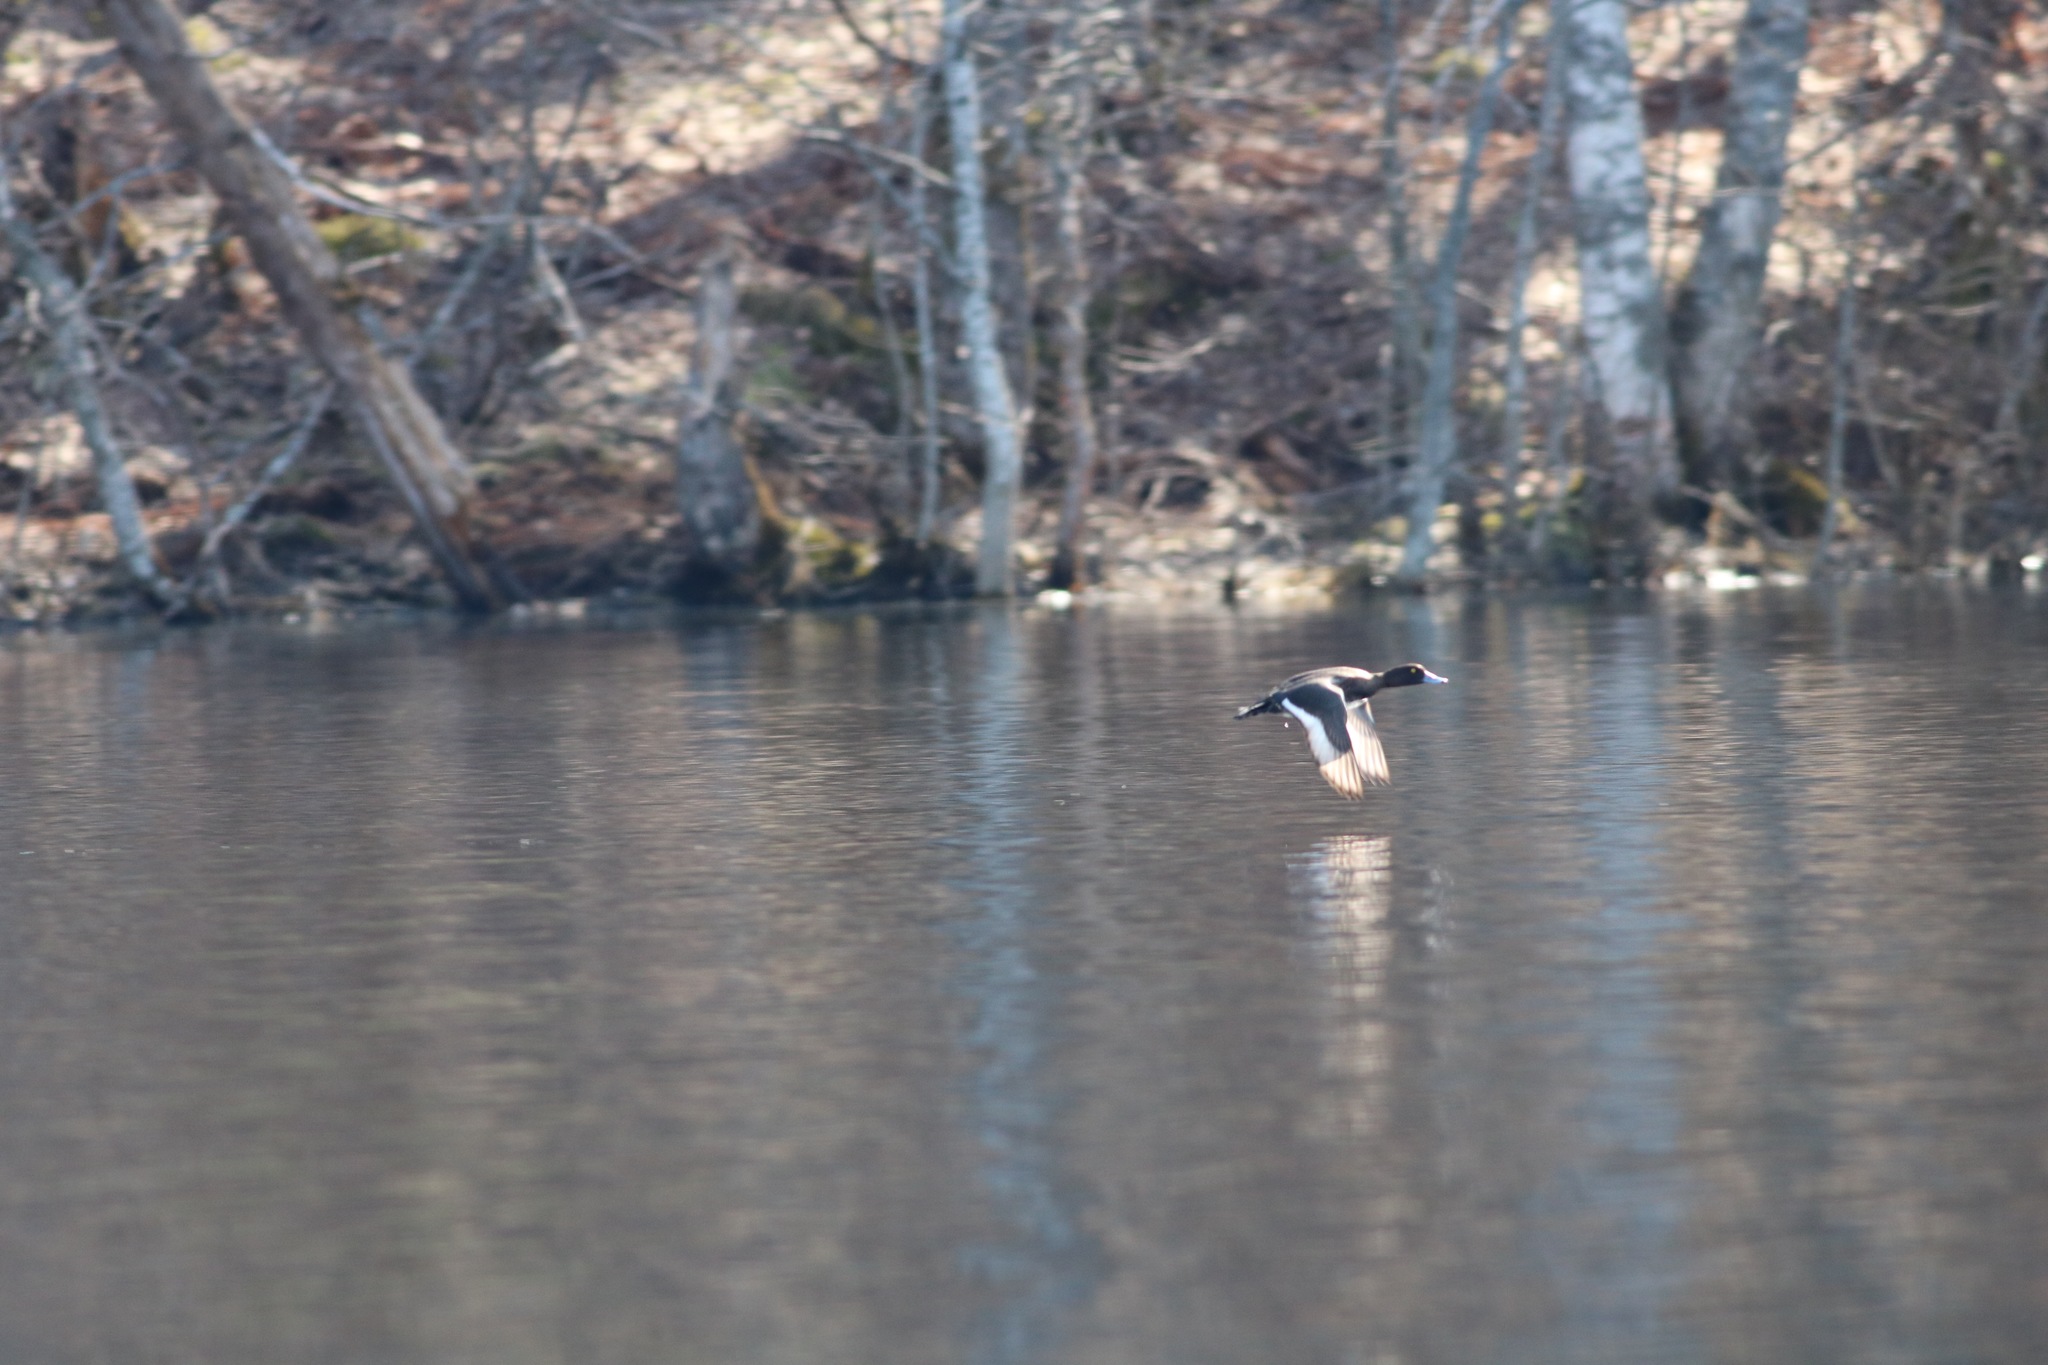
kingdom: Animalia
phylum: Chordata
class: Aves
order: Anseriformes
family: Anatidae
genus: Aythya
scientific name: Aythya fuligula
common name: Tufted duck
